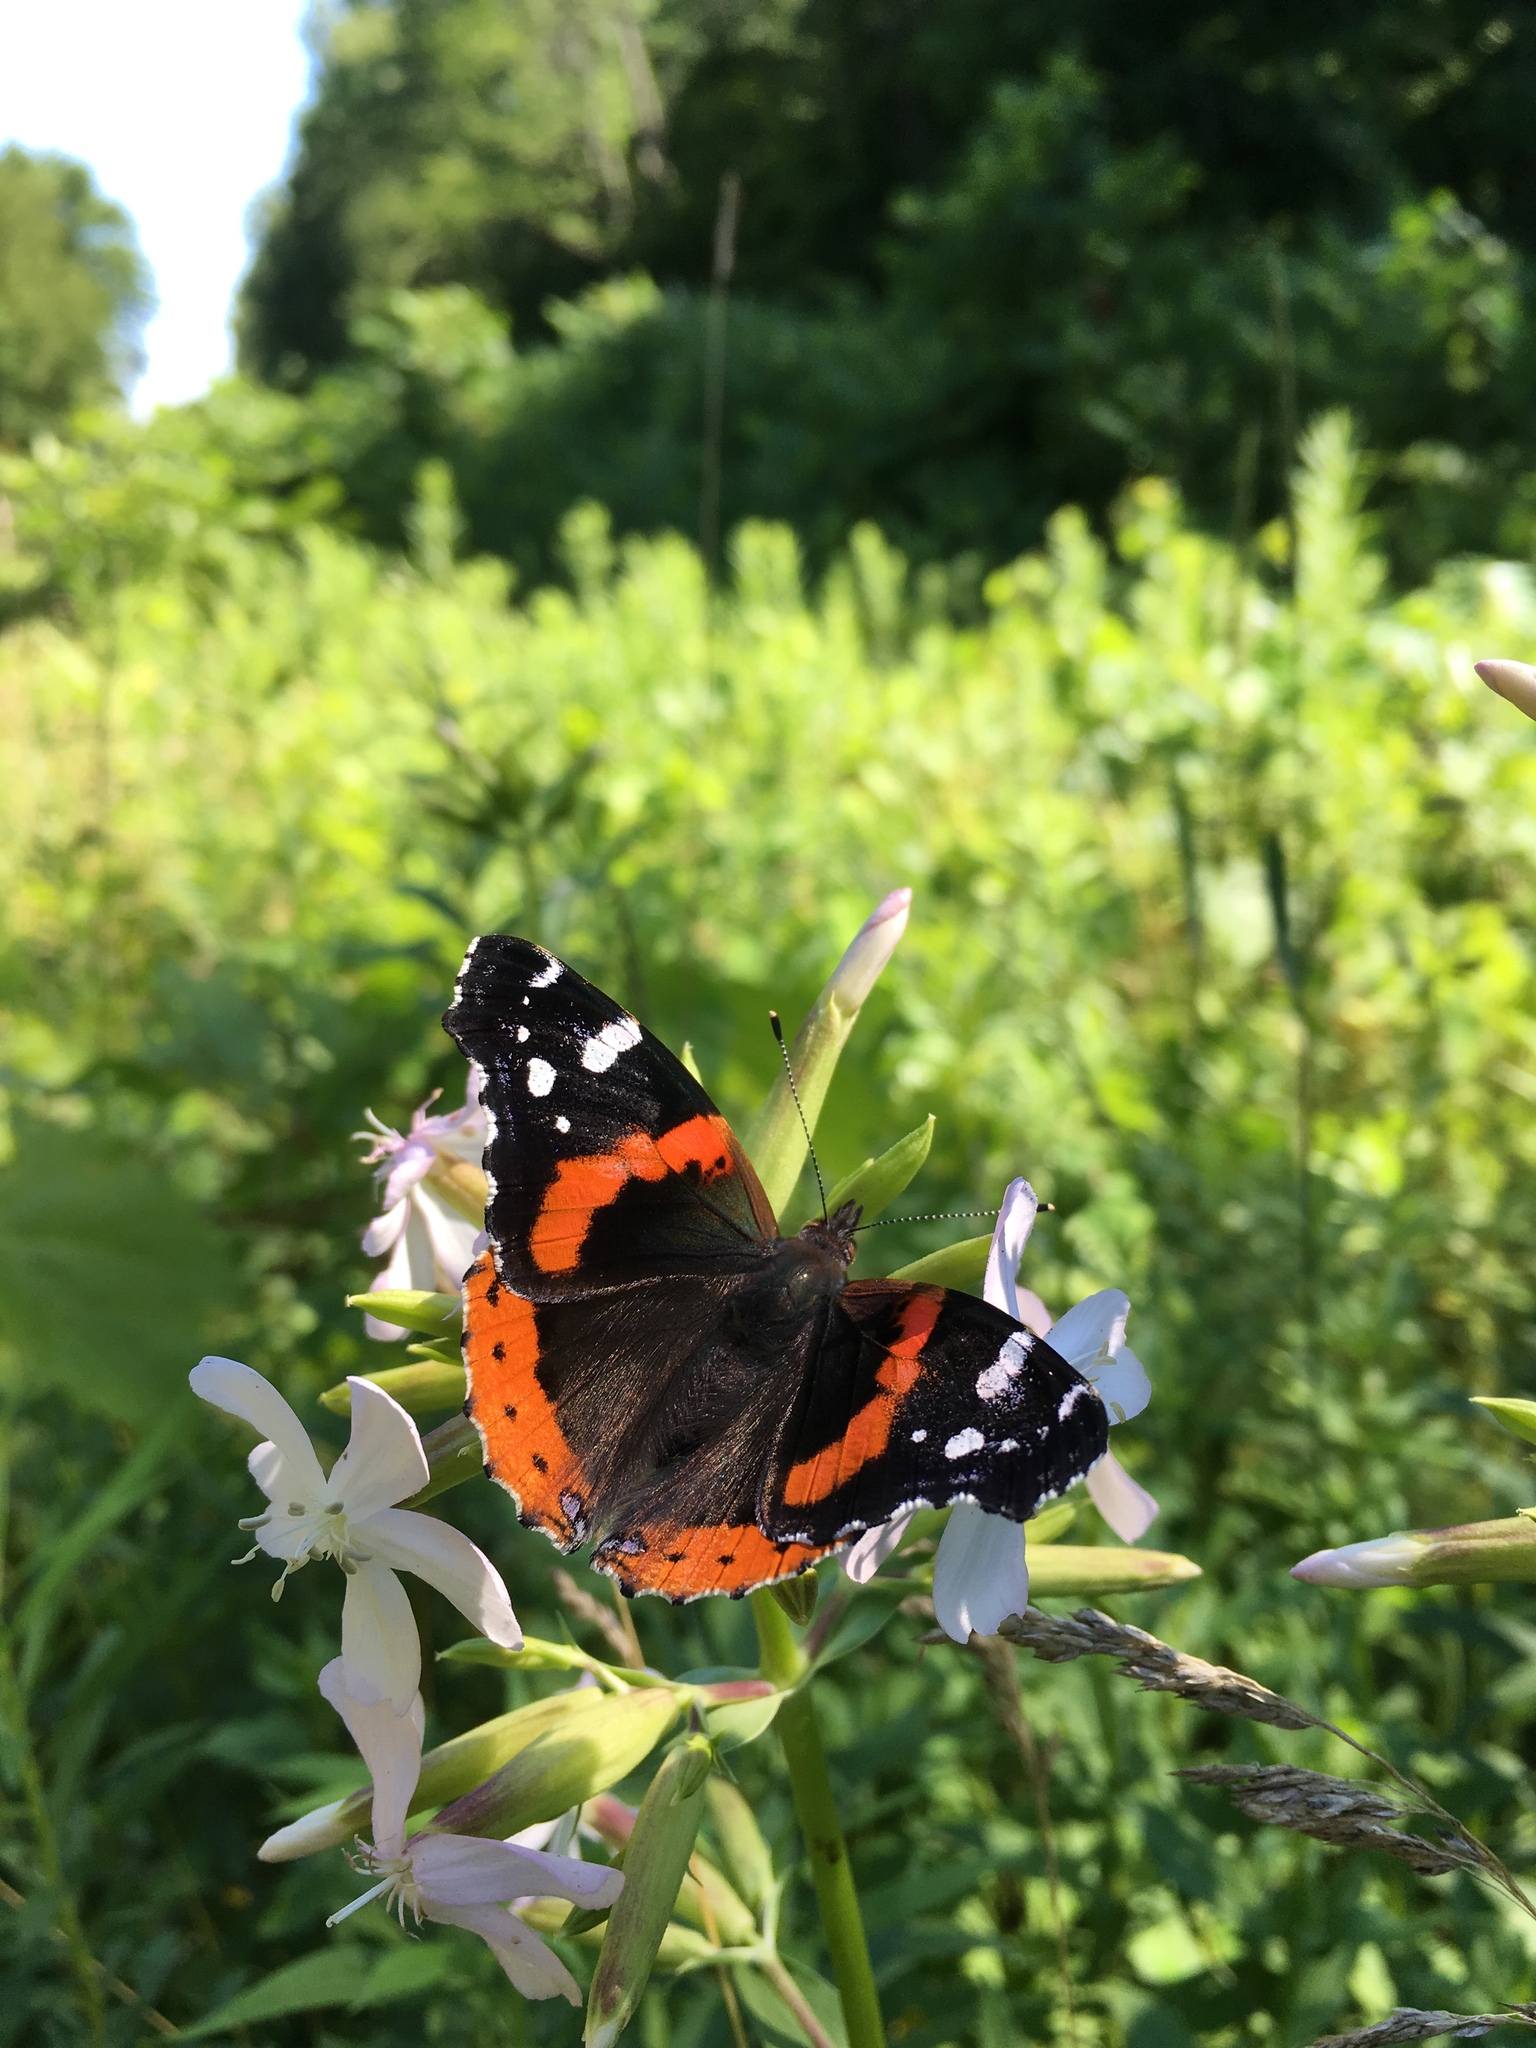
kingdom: Animalia
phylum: Arthropoda
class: Insecta
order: Lepidoptera
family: Nymphalidae
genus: Vanessa
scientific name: Vanessa atalanta
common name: Red admiral
